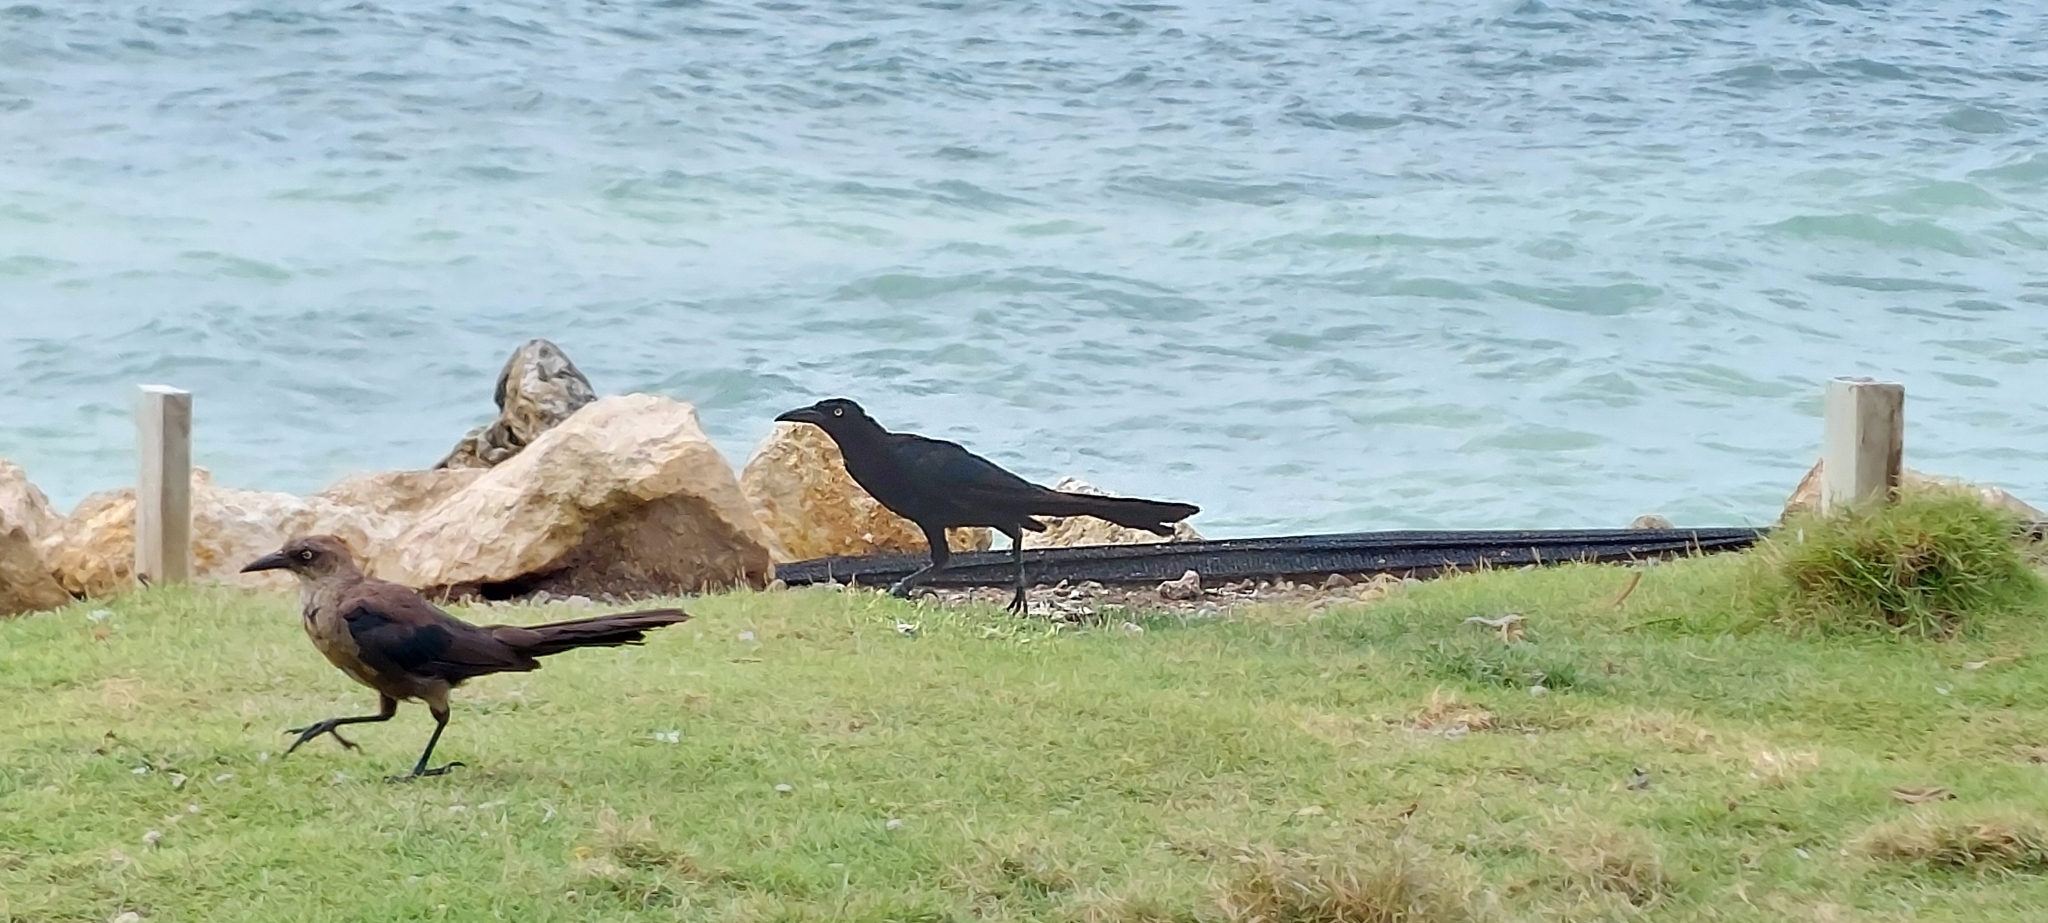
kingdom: Animalia
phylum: Chordata
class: Aves
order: Passeriformes
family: Icteridae
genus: Quiscalus
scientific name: Quiscalus mexicanus
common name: Great-tailed grackle
